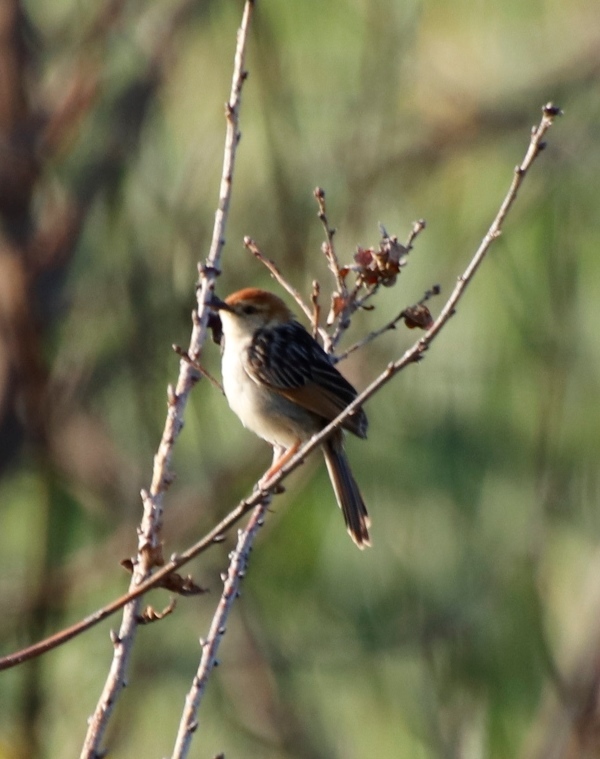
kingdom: Animalia
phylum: Chordata
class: Aves
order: Passeriformes
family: Cisticolidae
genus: Cisticola
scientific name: Cisticola tinniens
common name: Levaillant's cisticola
